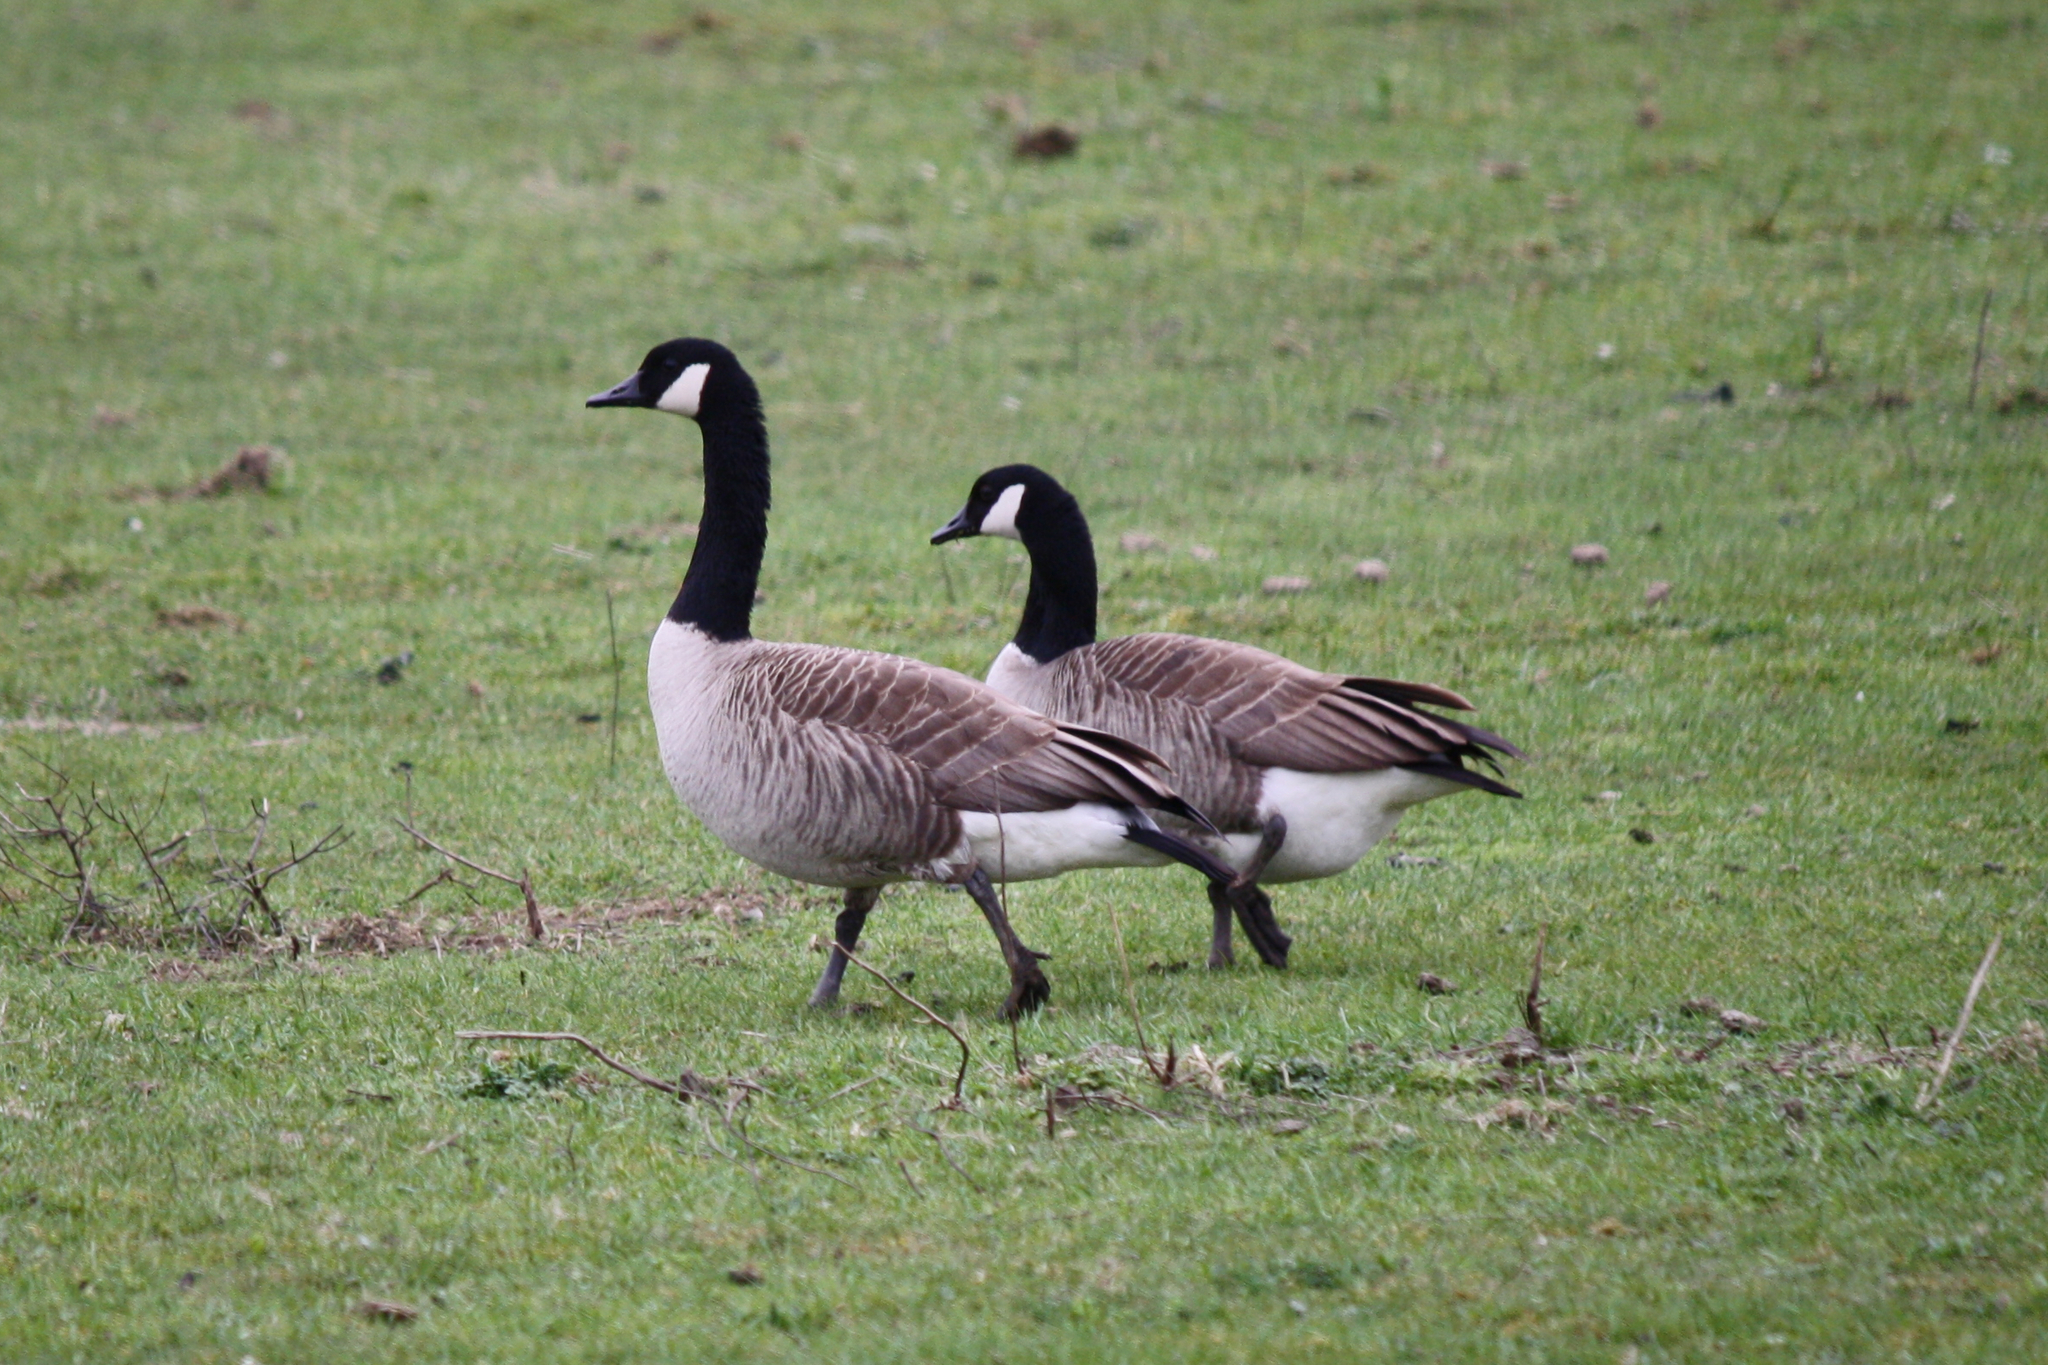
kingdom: Animalia
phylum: Chordata
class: Aves
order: Anseriformes
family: Anatidae
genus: Branta
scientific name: Branta canadensis
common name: Canada goose
